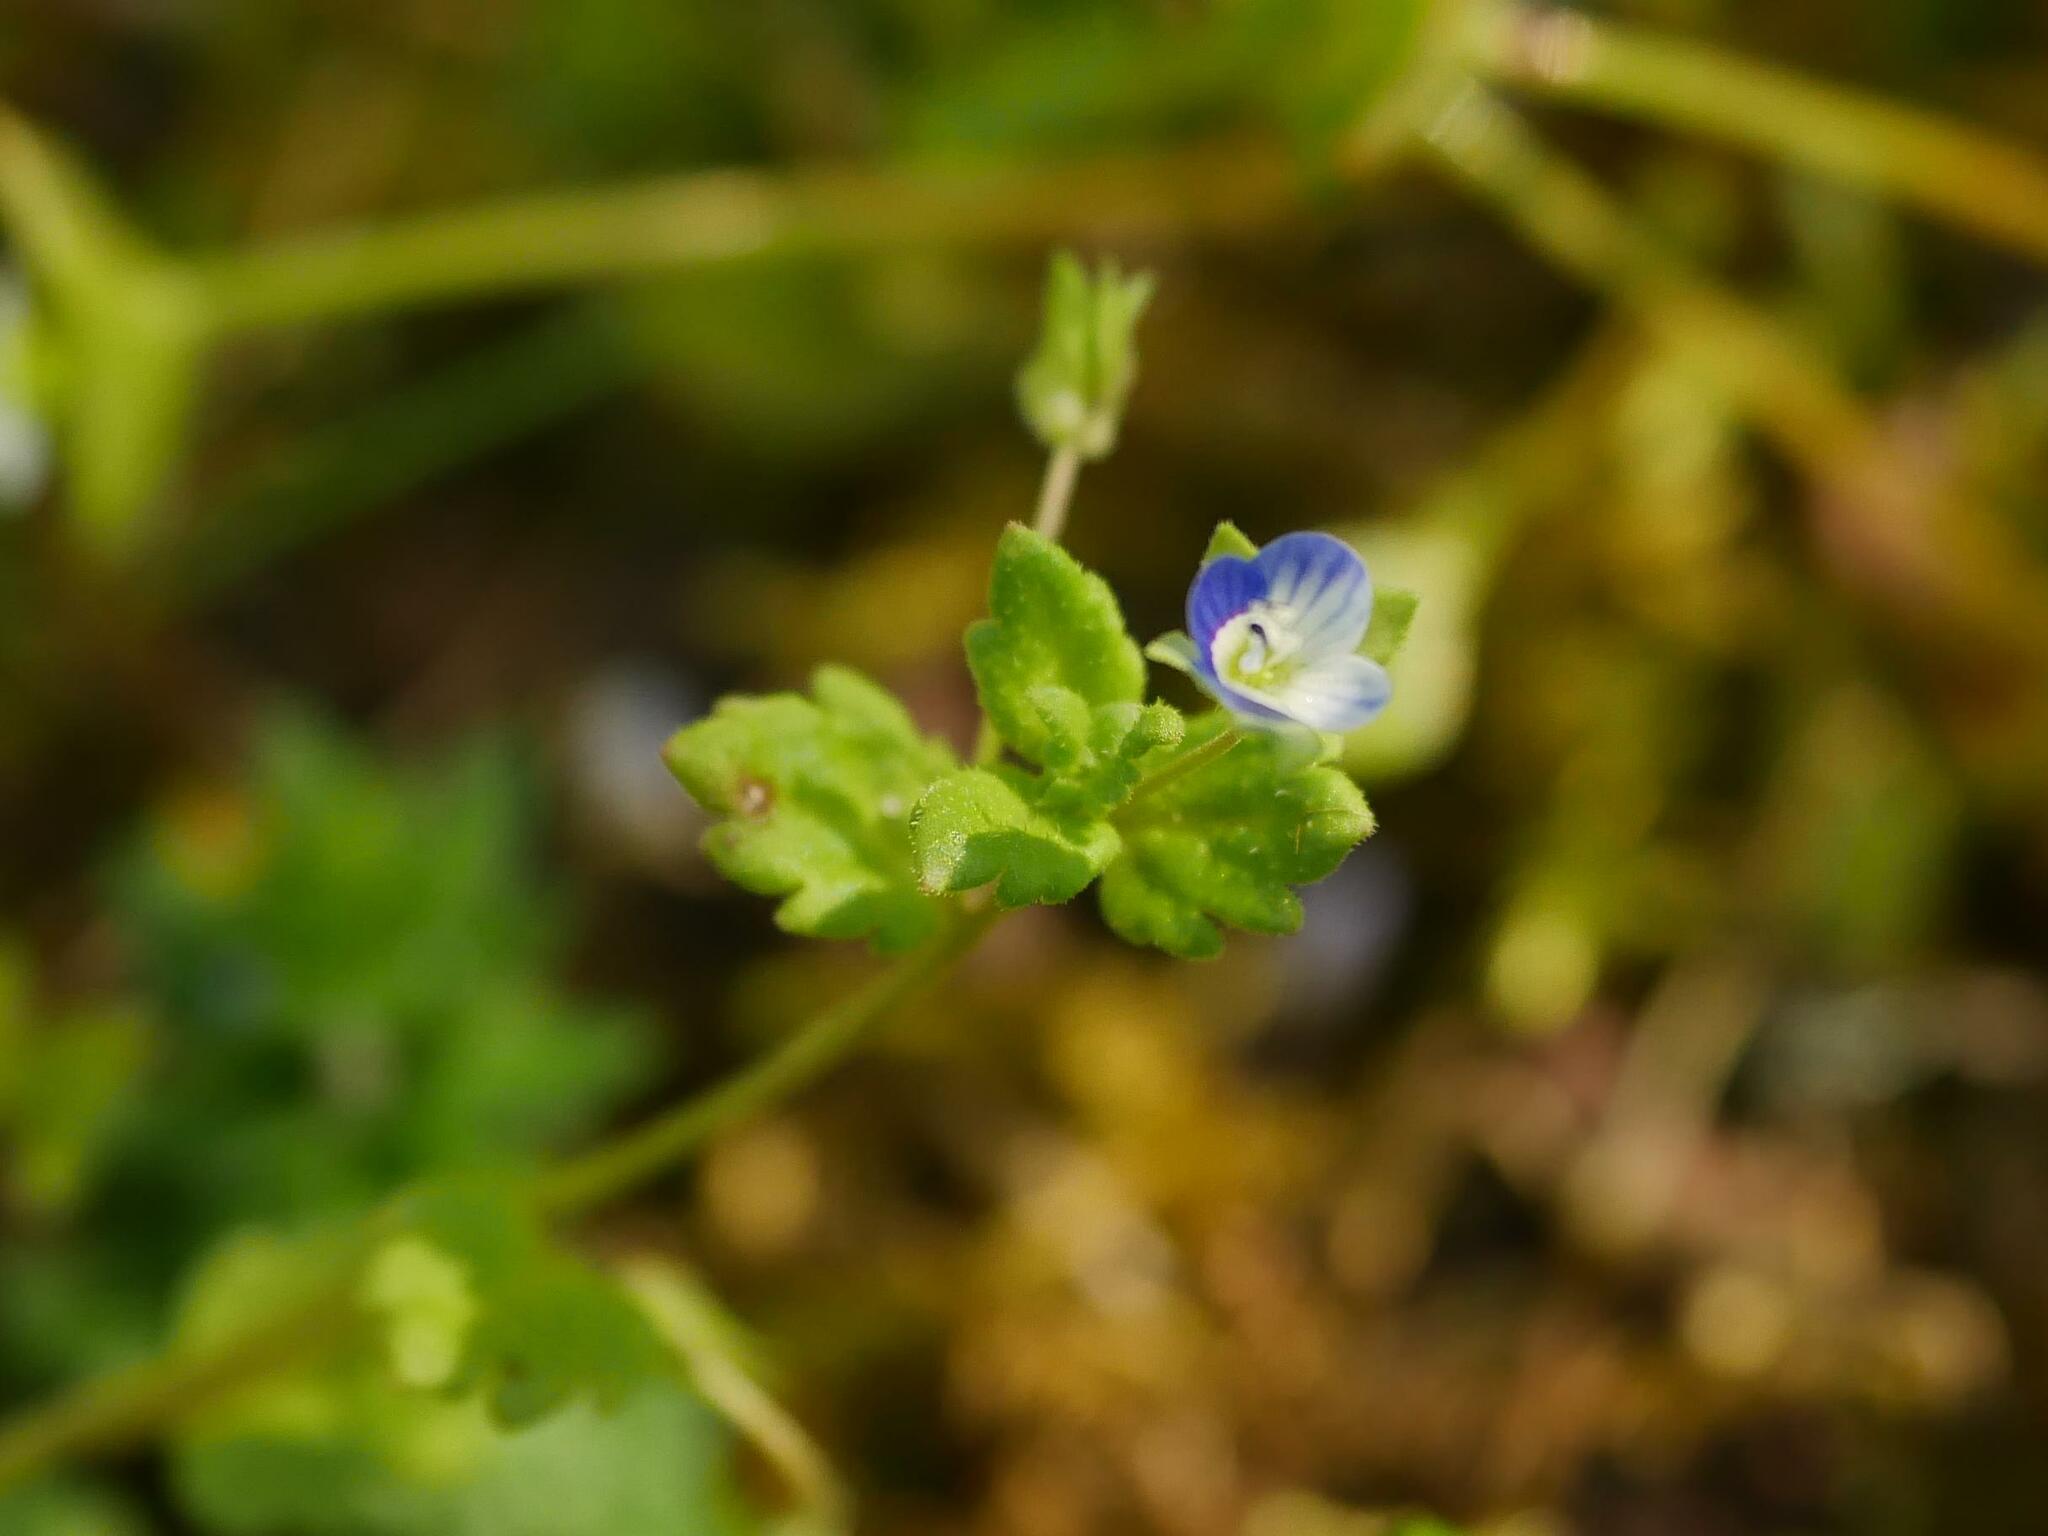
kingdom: Plantae
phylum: Tracheophyta
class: Magnoliopsida
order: Lamiales
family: Plantaginaceae
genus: Veronica
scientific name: Veronica persica
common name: Common field-speedwell
